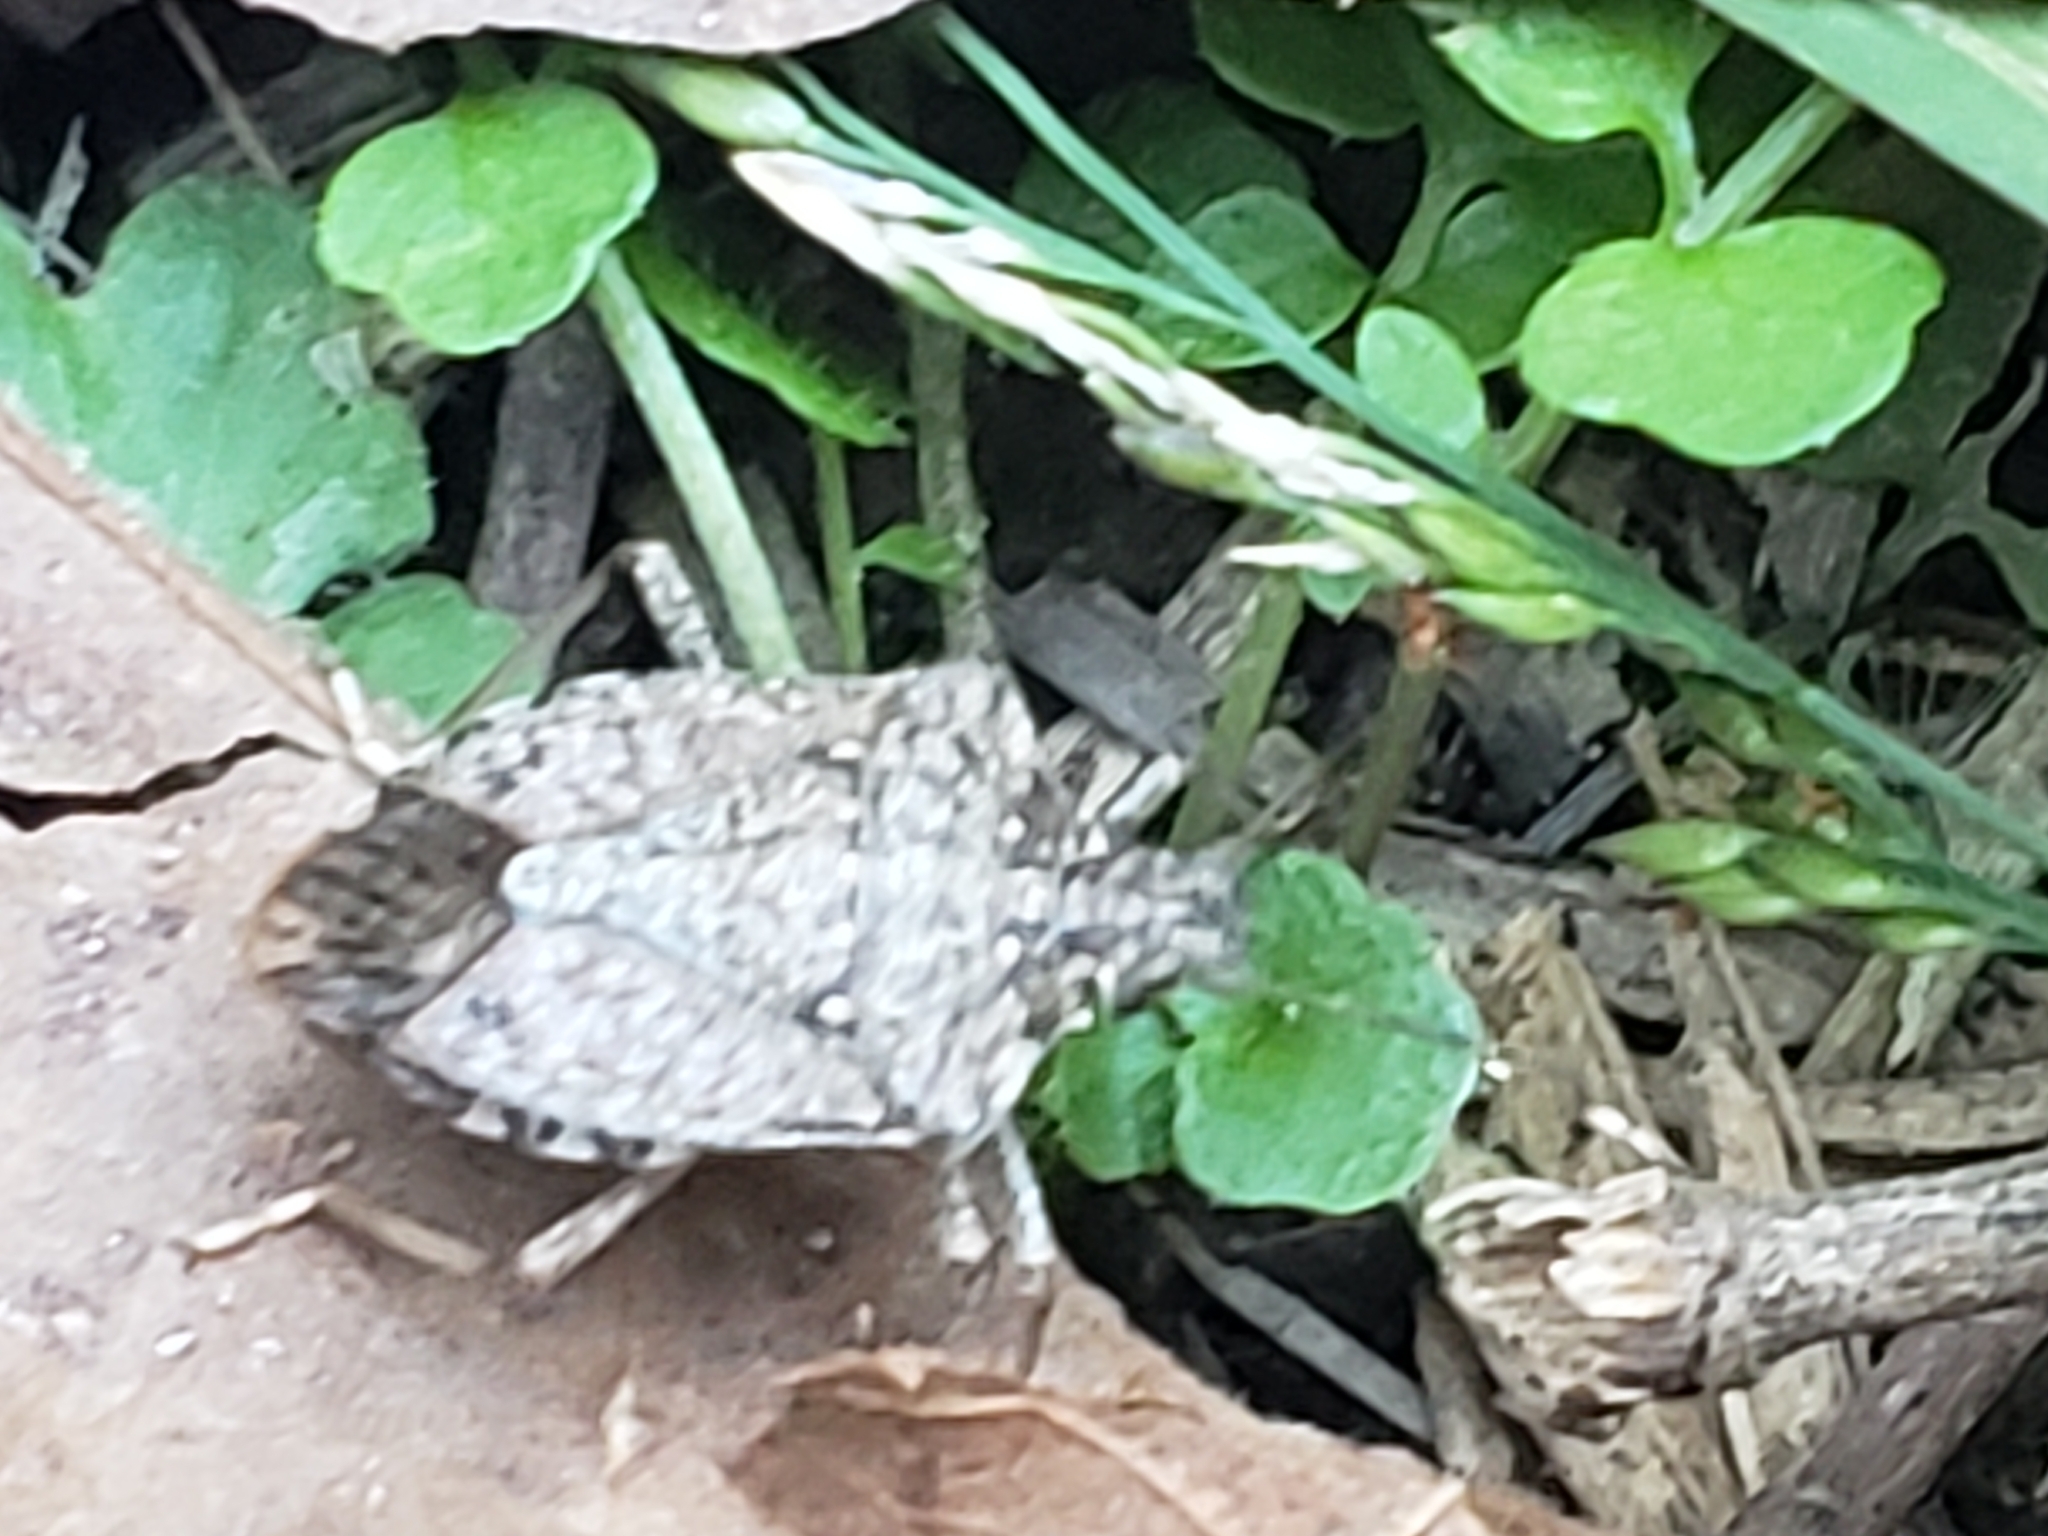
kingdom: Animalia
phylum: Arthropoda
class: Insecta
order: Hemiptera
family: Pentatomidae
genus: Halyomorpha
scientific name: Halyomorpha halys
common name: Brown marmorated stink bug
